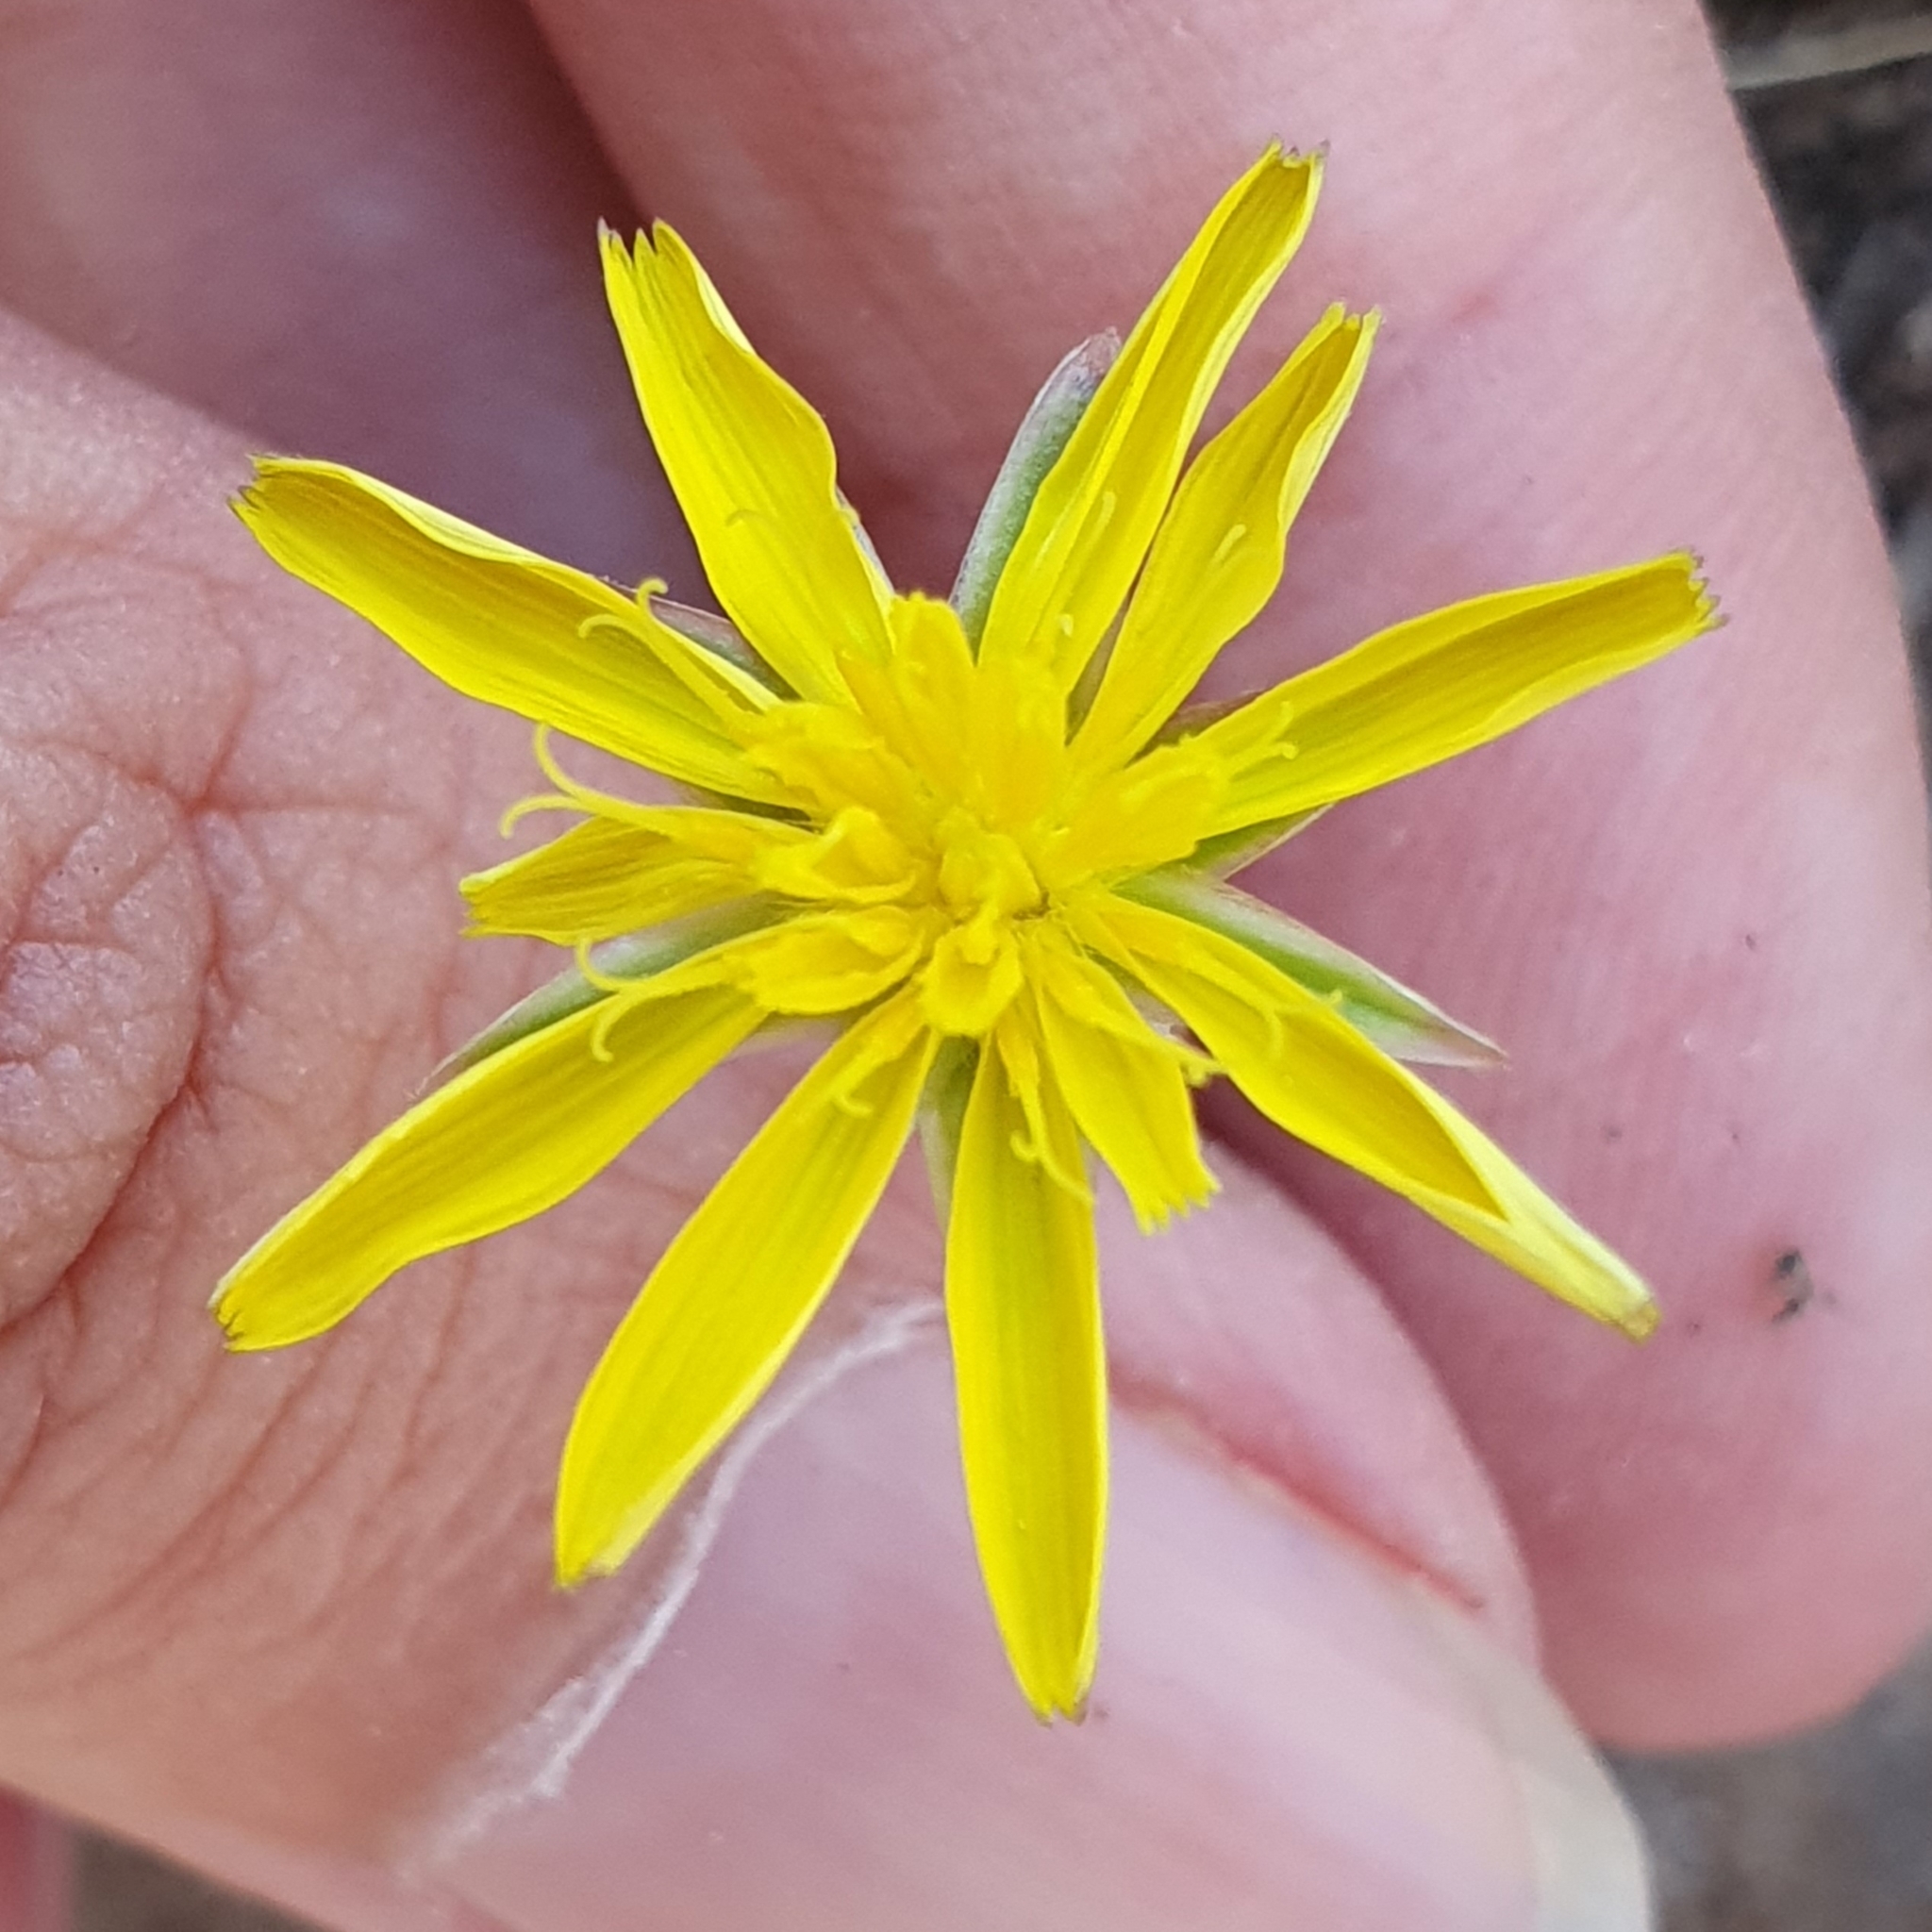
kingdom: Plantae
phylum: Tracheophyta
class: Magnoliopsida
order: Asterales
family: Asteraceae
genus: Pseudopodospermum
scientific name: Pseudopodospermum brevicaule
